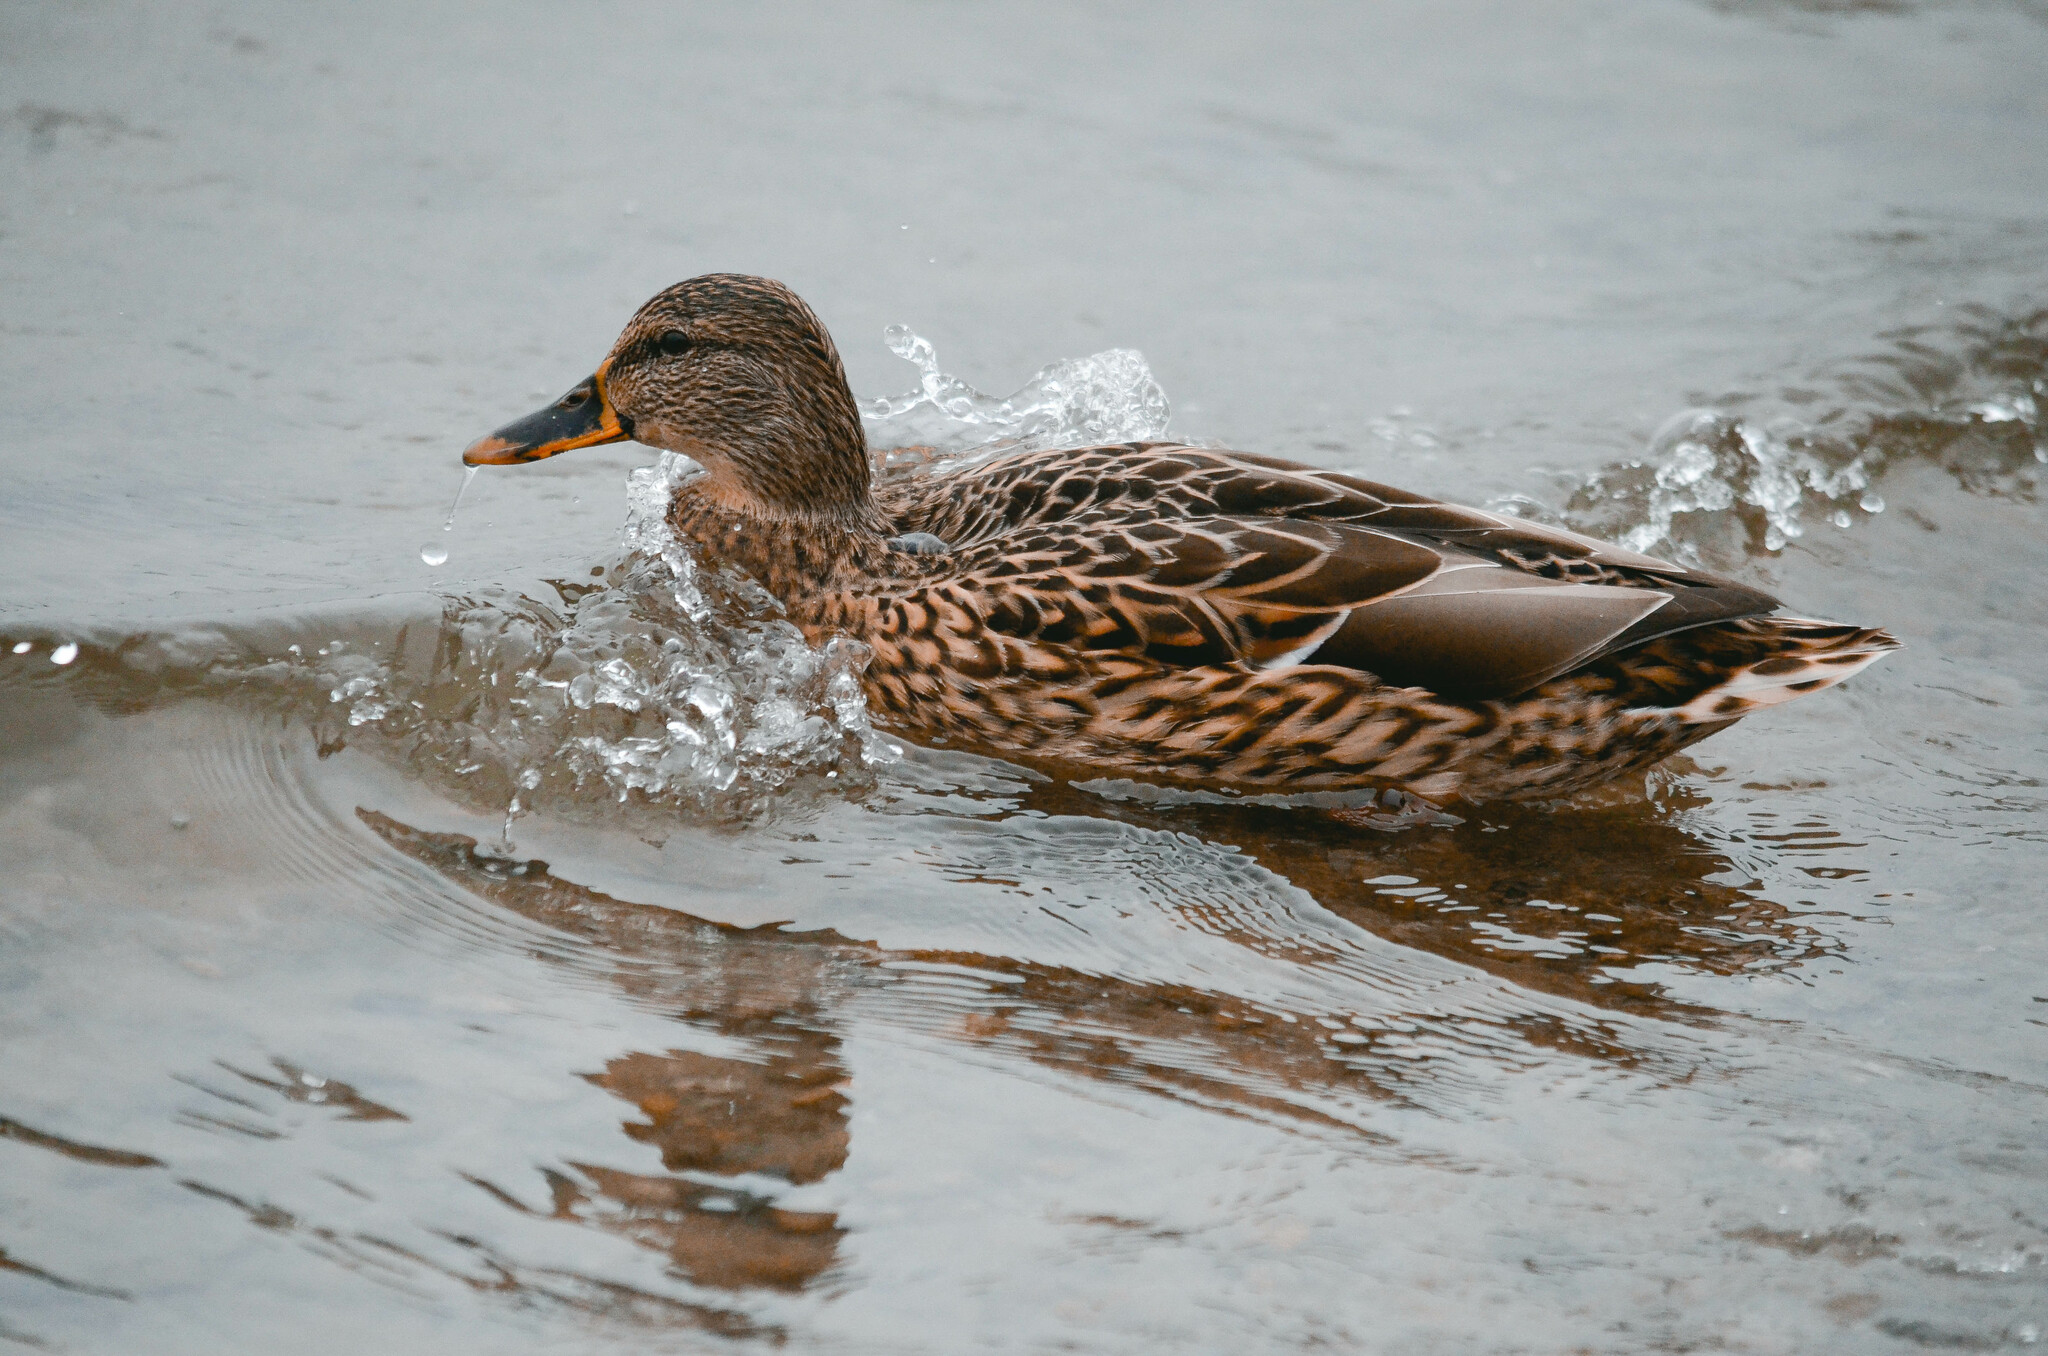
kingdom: Animalia
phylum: Chordata
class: Aves
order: Anseriformes
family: Anatidae
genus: Anas
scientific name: Anas platyrhynchos
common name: Mallard
